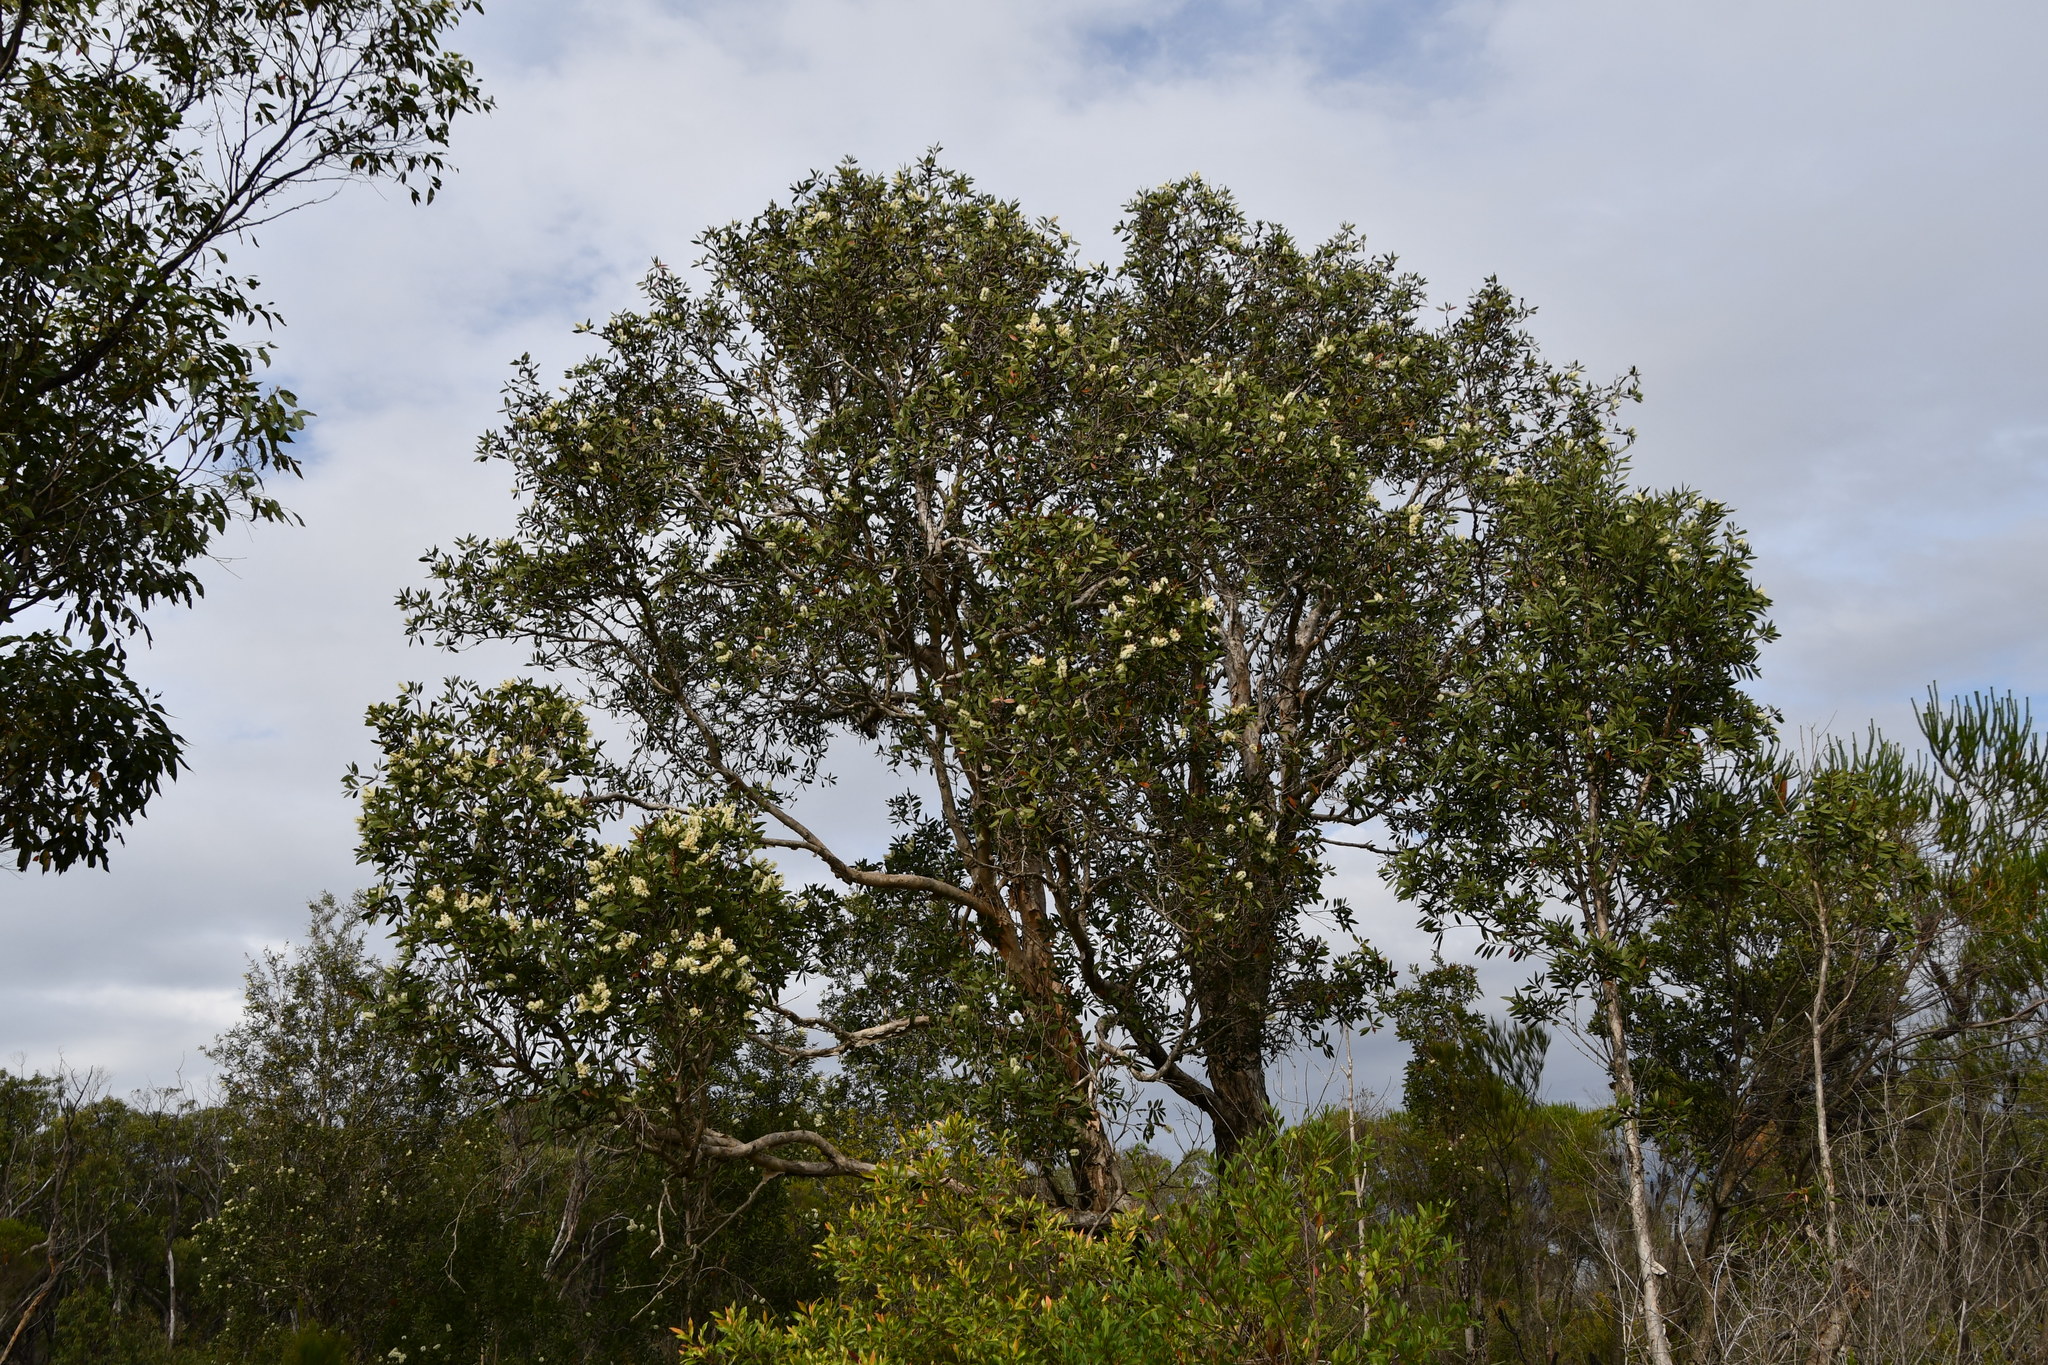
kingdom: Plantae
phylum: Tracheophyta
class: Magnoliopsida
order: Myrtales
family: Myrtaceae
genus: Melaleuca
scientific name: Melaleuca quinquenervia
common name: Punktree
